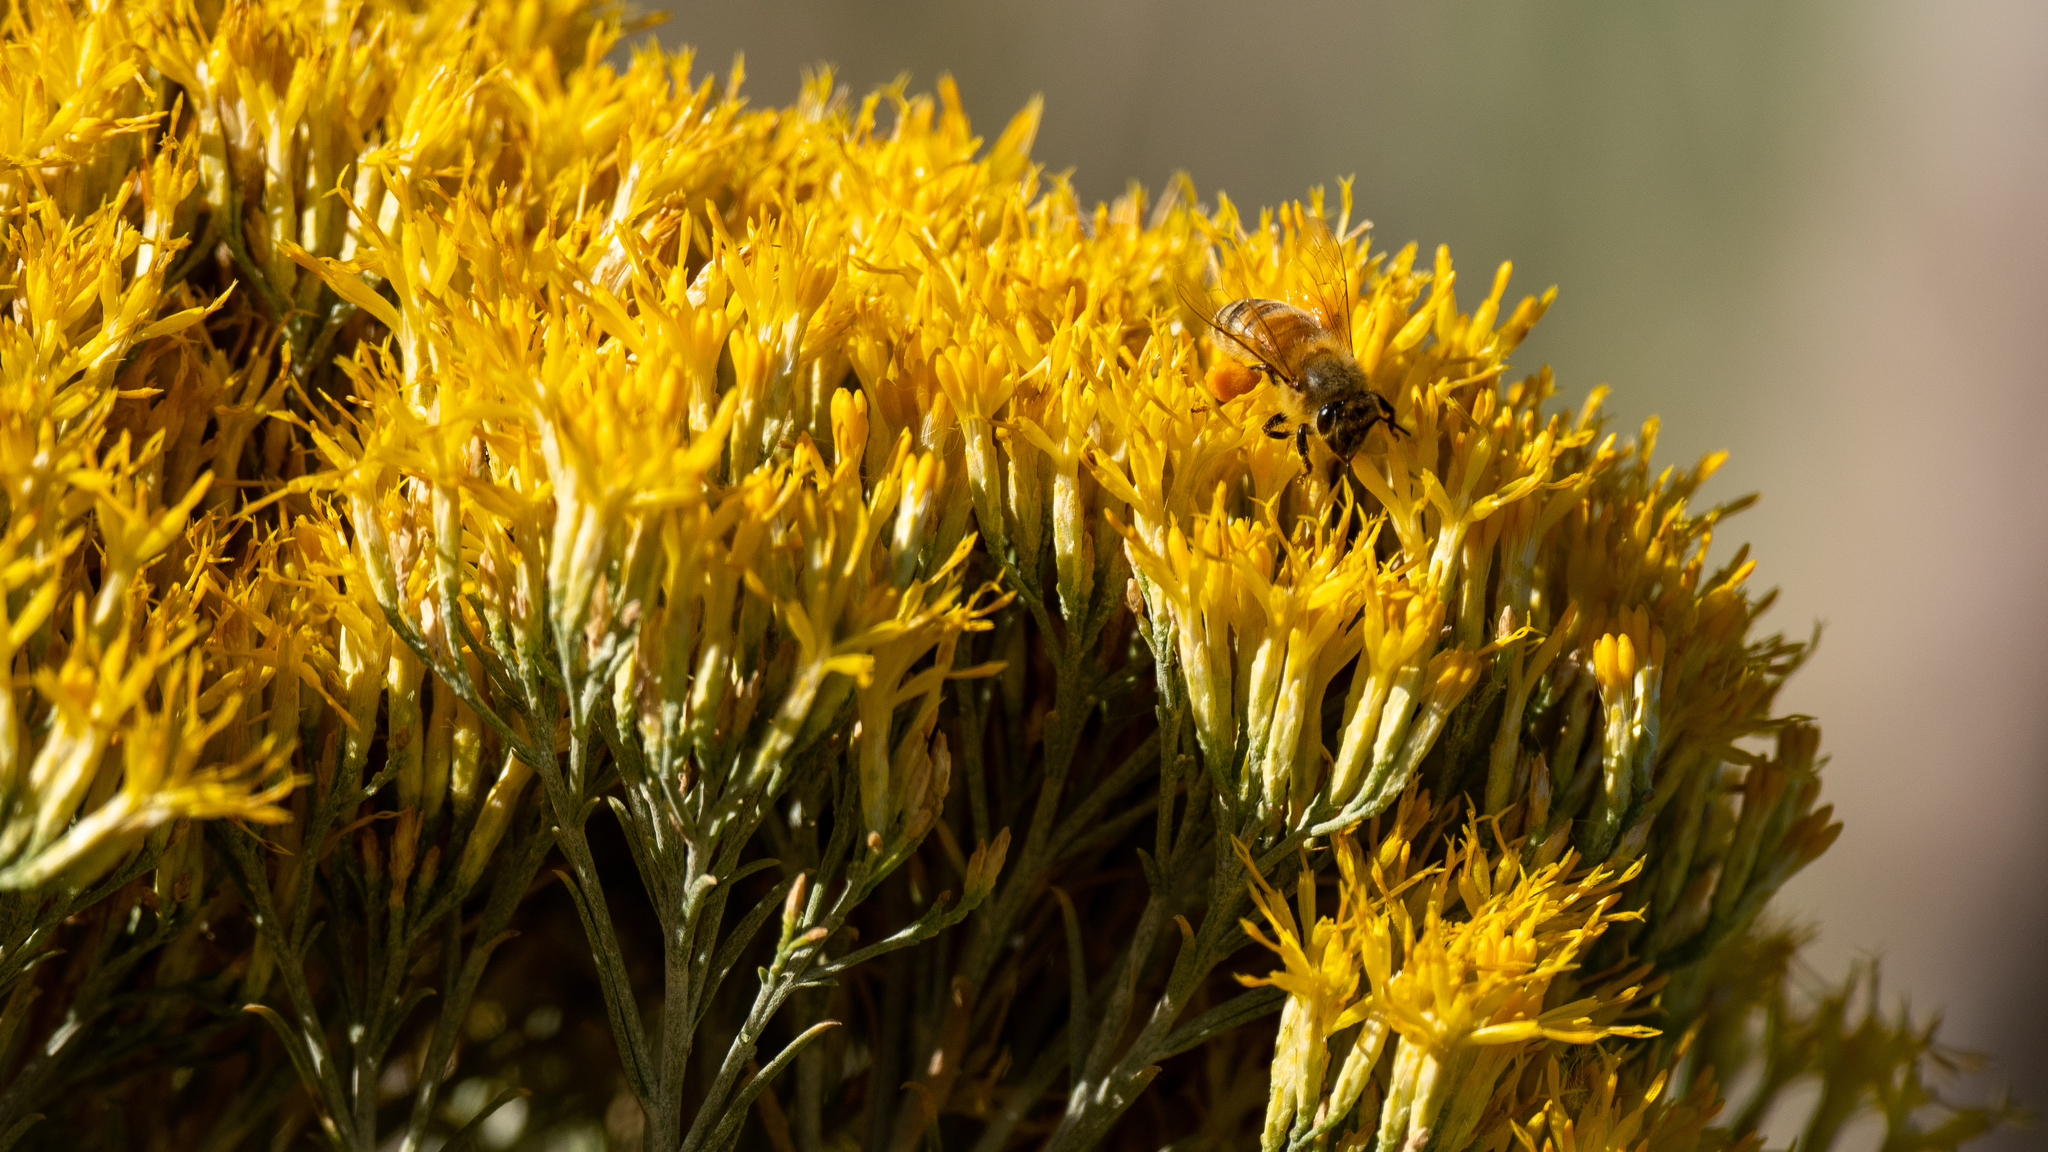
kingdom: Animalia
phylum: Arthropoda
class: Insecta
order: Hymenoptera
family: Apidae
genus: Apis
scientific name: Apis mellifera
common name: Honey bee
